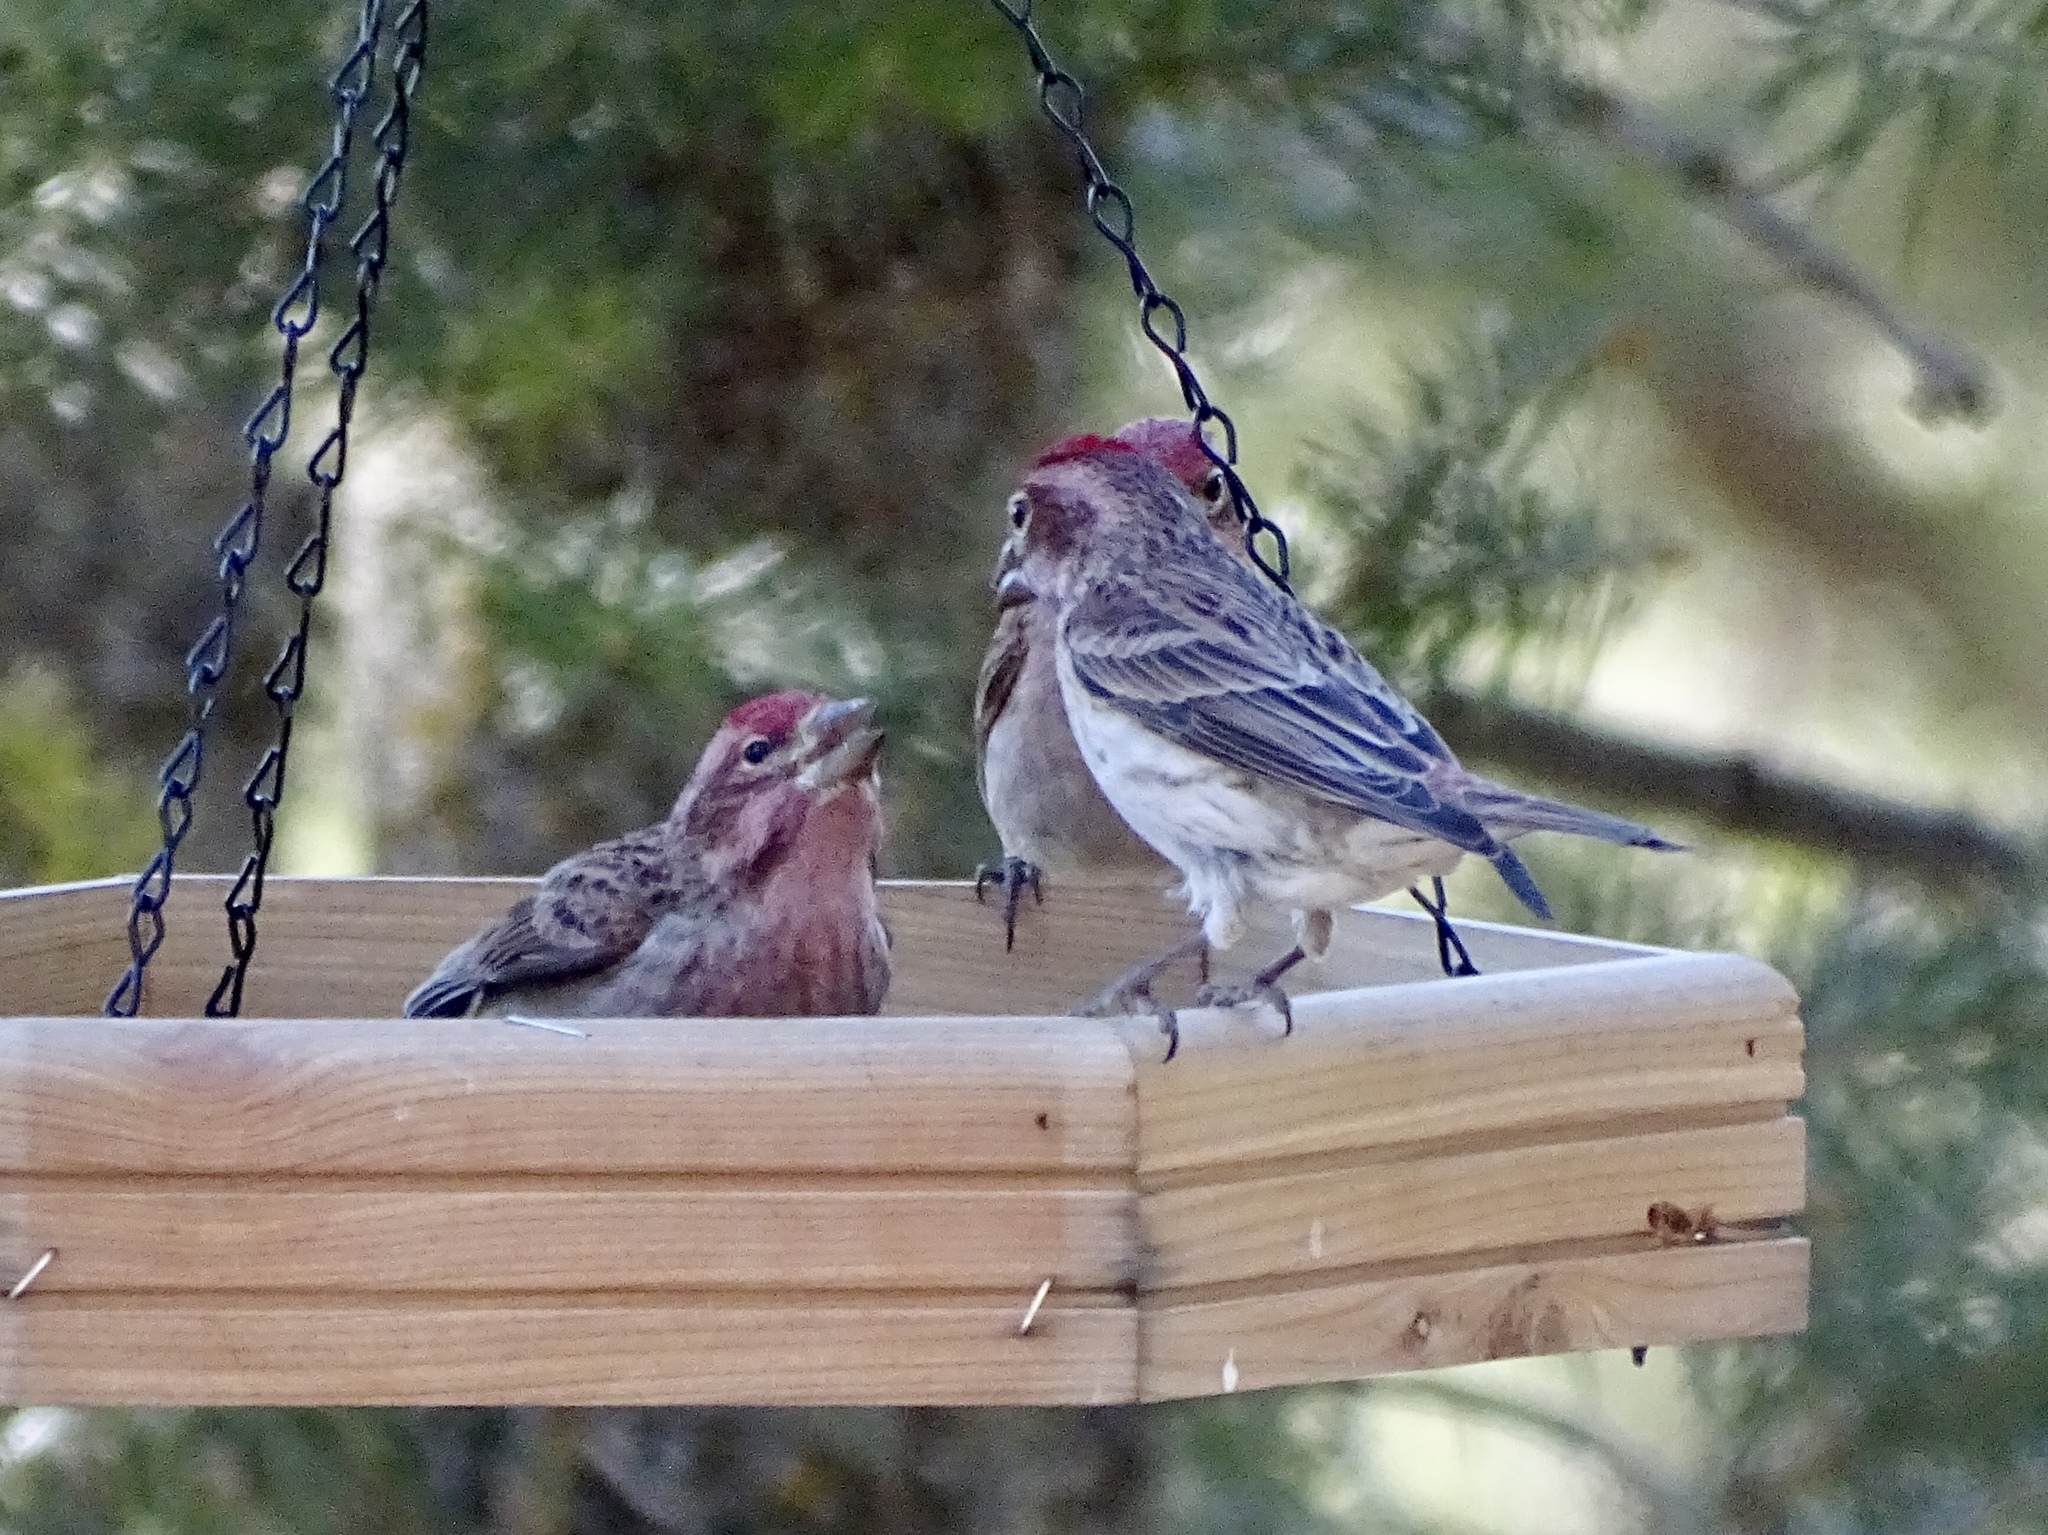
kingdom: Animalia
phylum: Chordata
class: Aves
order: Passeriformes
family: Fringillidae
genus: Haemorhous
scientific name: Haemorhous cassinii
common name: Cassin's finch
